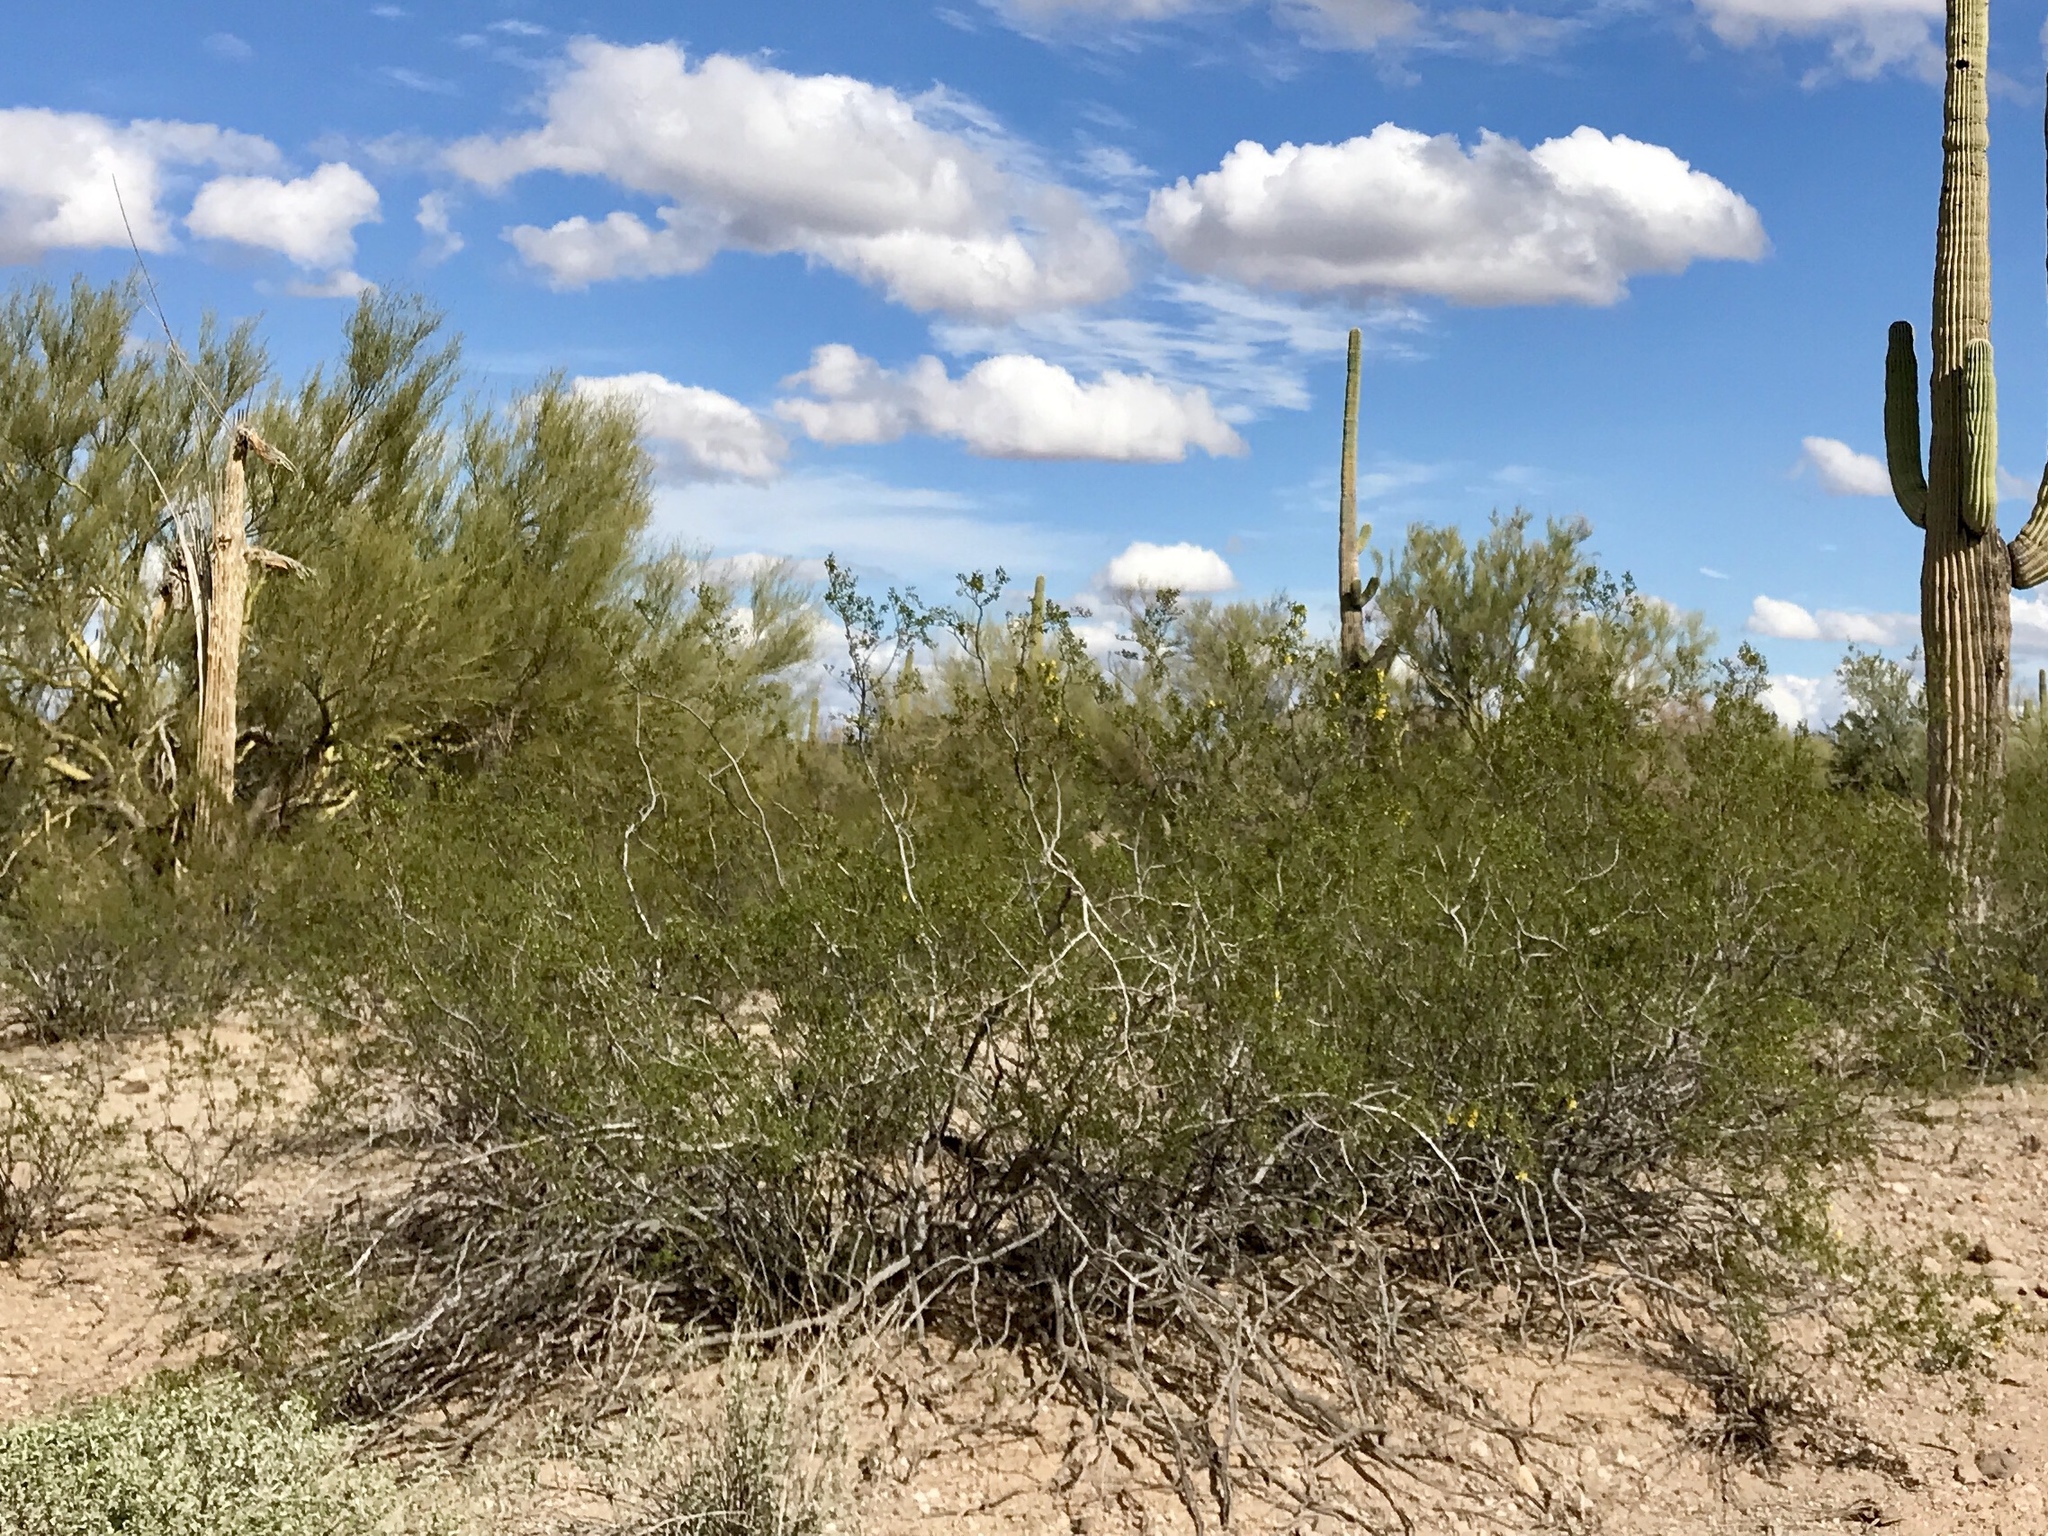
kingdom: Plantae
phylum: Tracheophyta
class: Magnoliopsida
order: Zygophyllales
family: Zygophyllaceae
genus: Larrea
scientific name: Larrea tridentata
